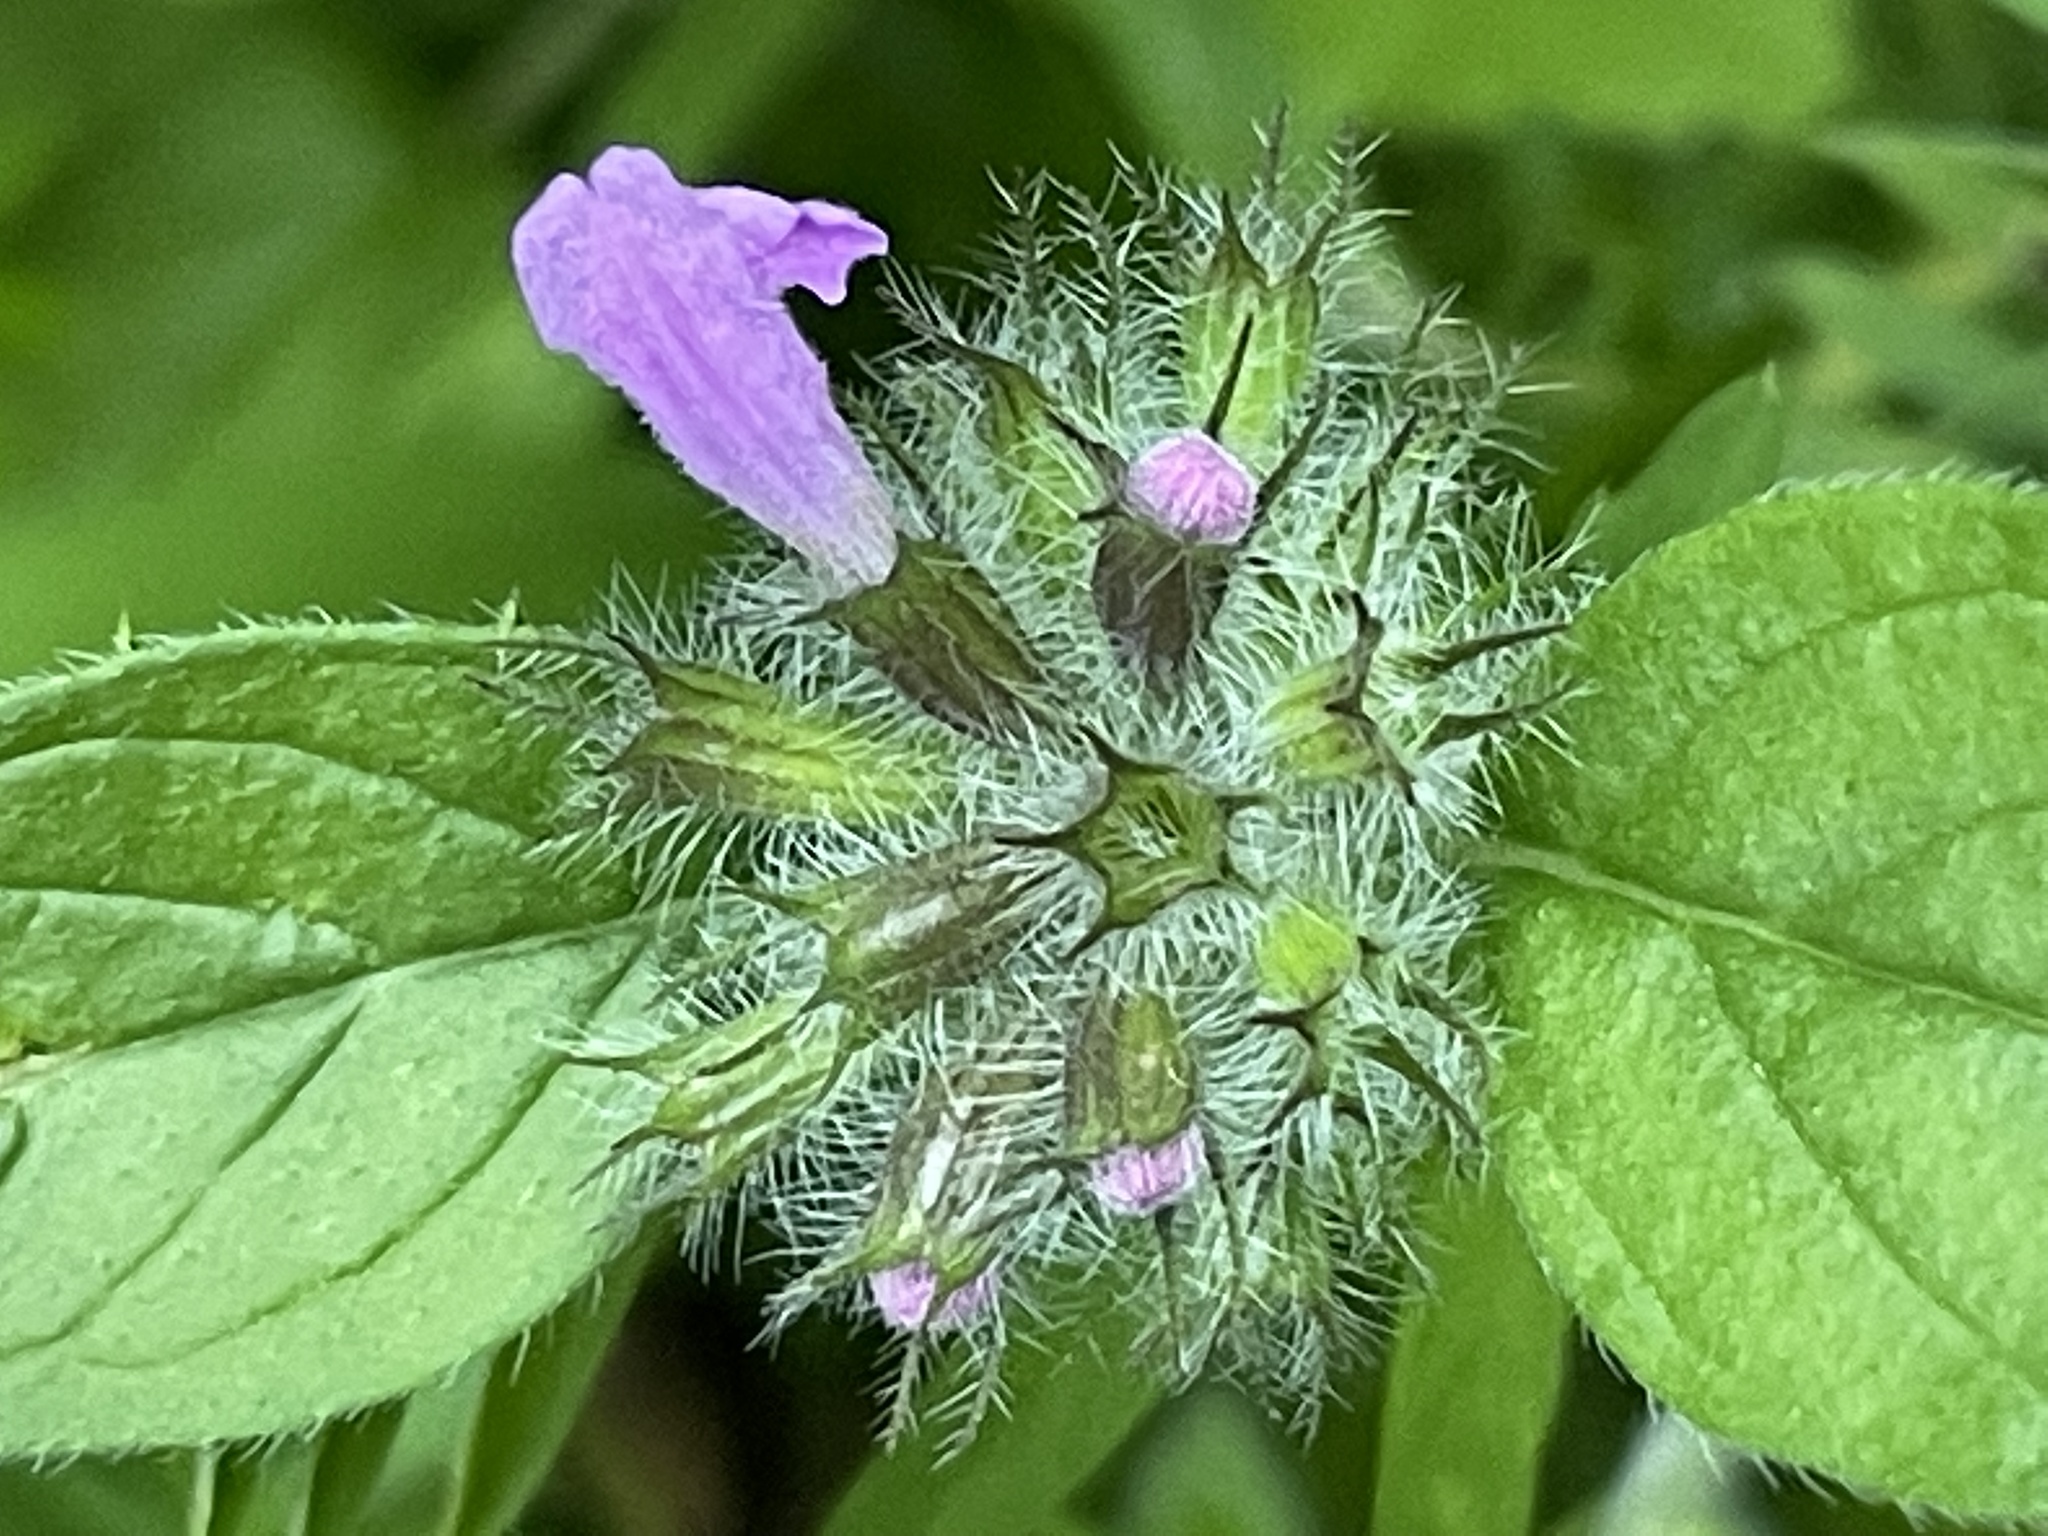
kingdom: Plantae
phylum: Tracheophyta
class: Magnoliopsida
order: Lamiales
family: Lamiaceae
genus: Clinopodium
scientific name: Clinopodium vulgare
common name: Wild basil
